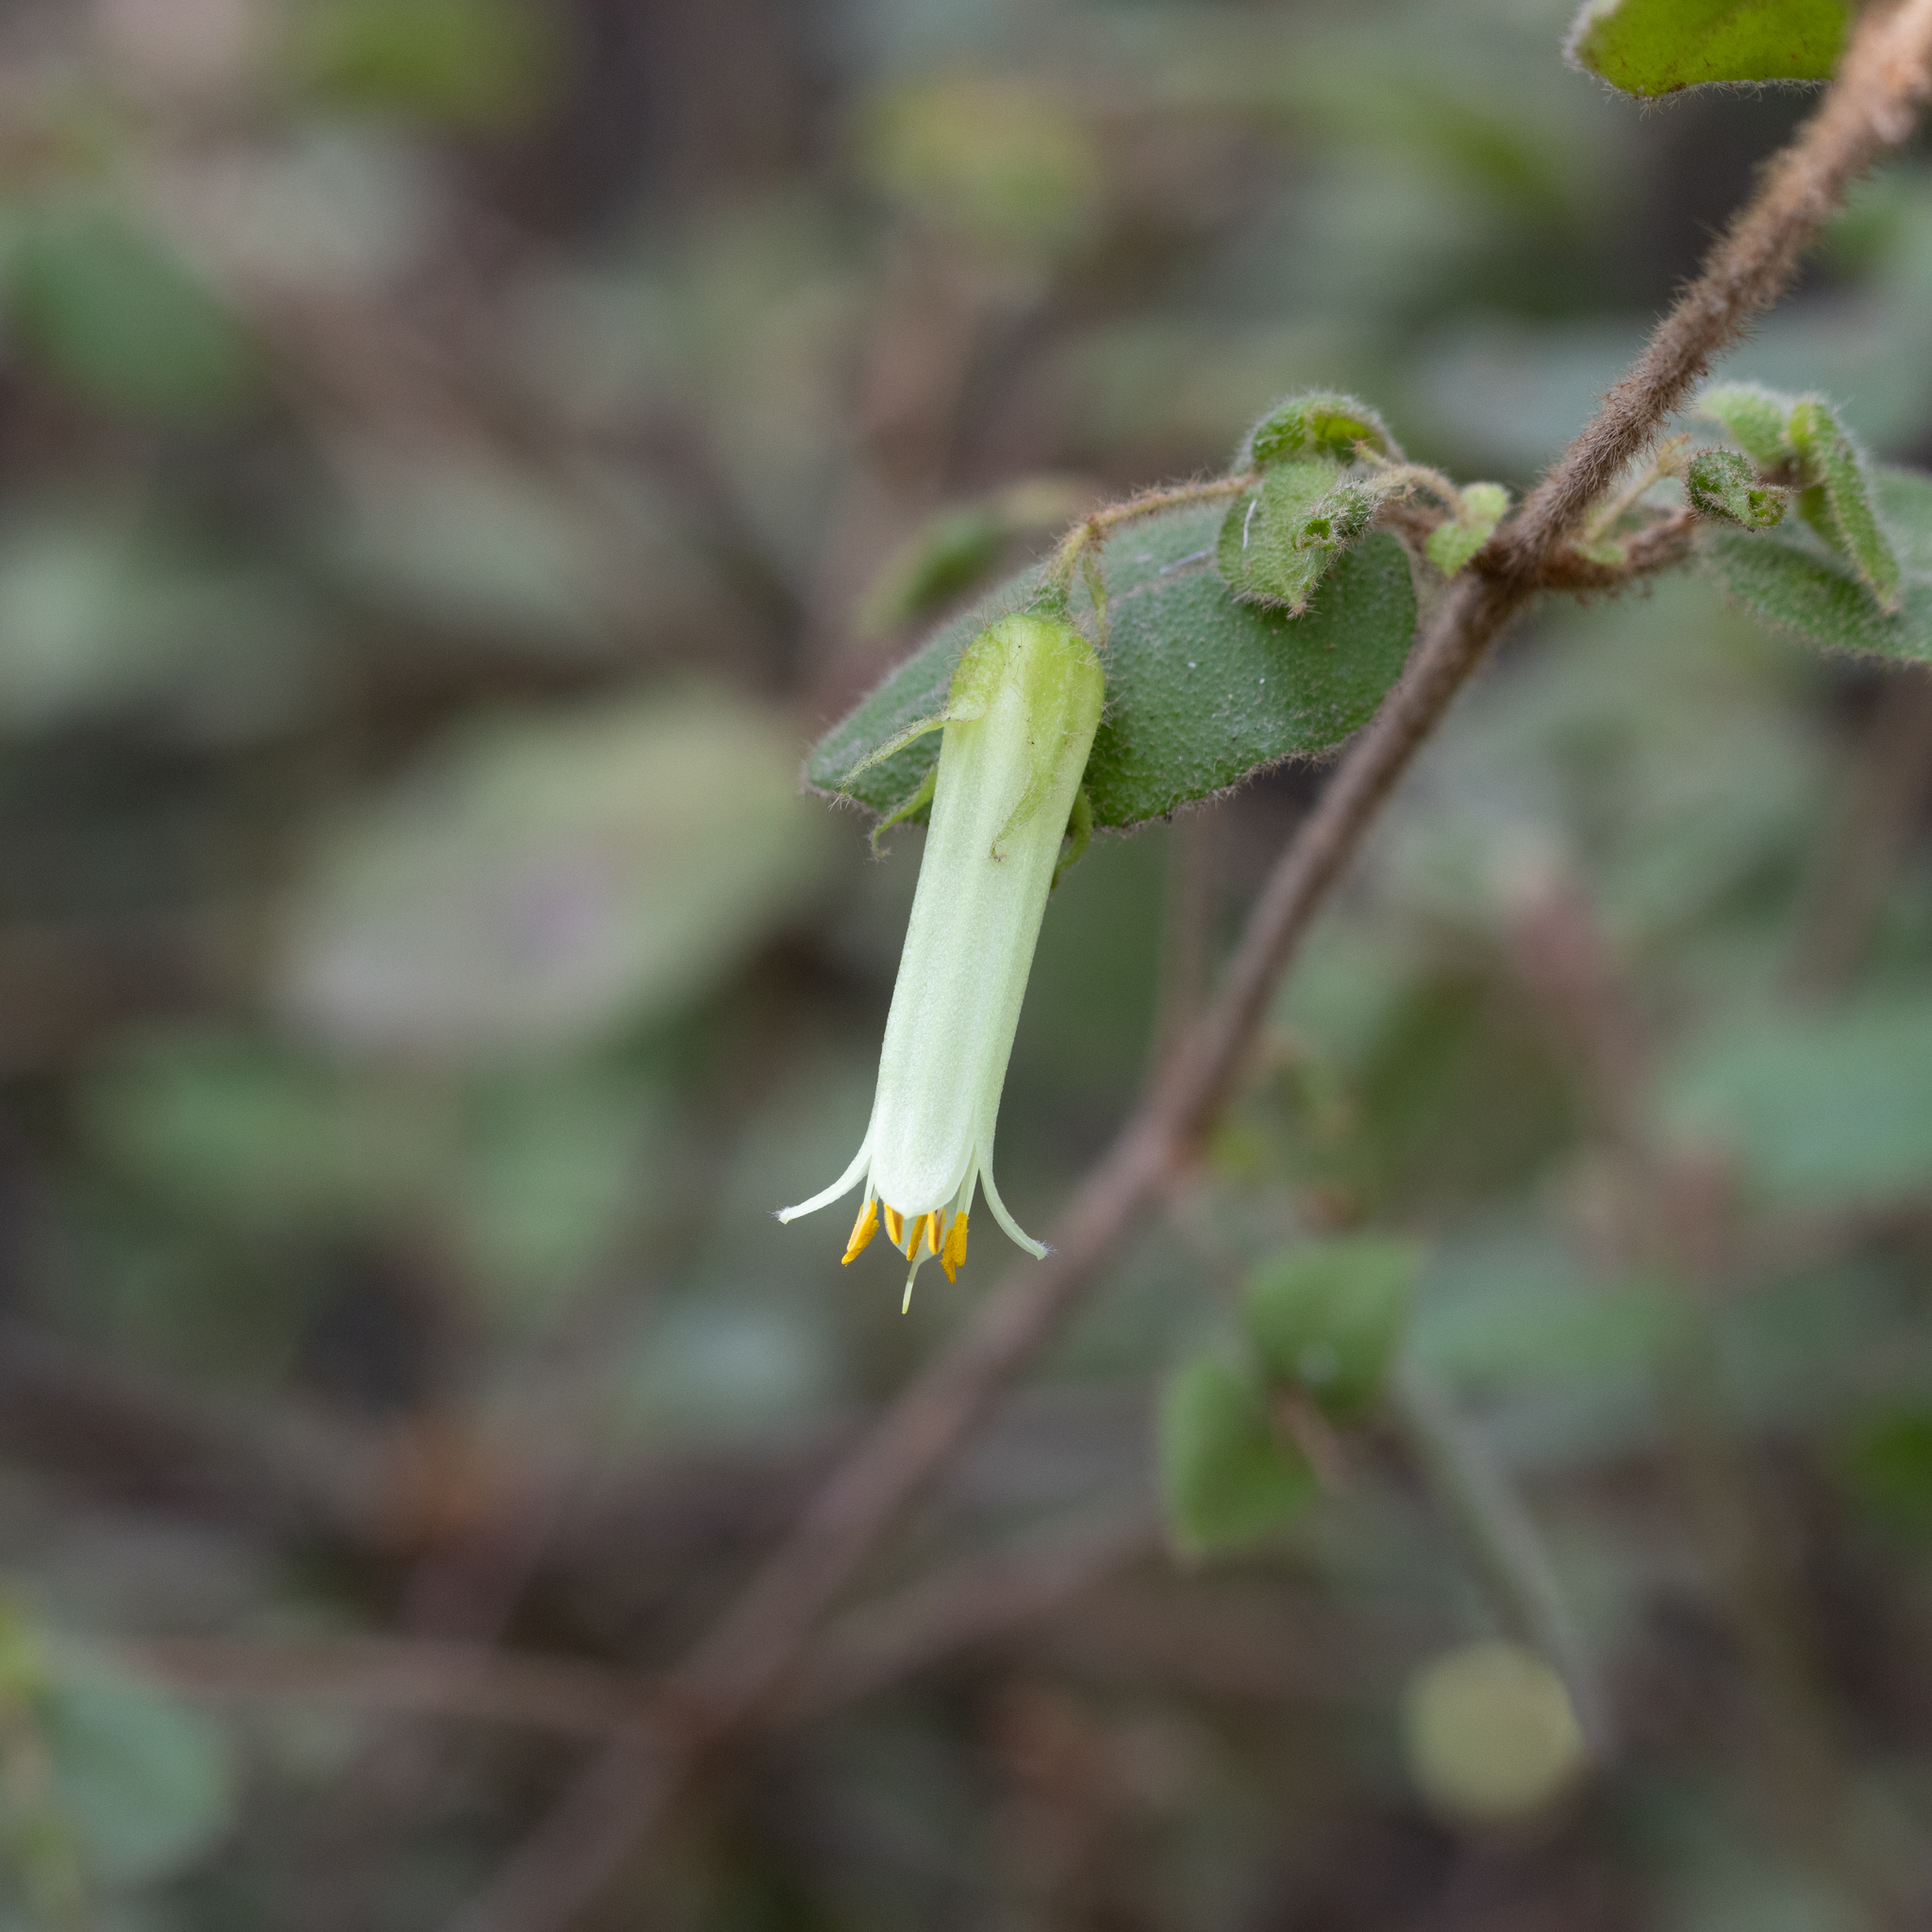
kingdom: Plantae
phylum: Tracheophyta
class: Magnoliopsida
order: Sapindales
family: Rutaceae
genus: Correa
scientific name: Correa aemula
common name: Hairy correa
